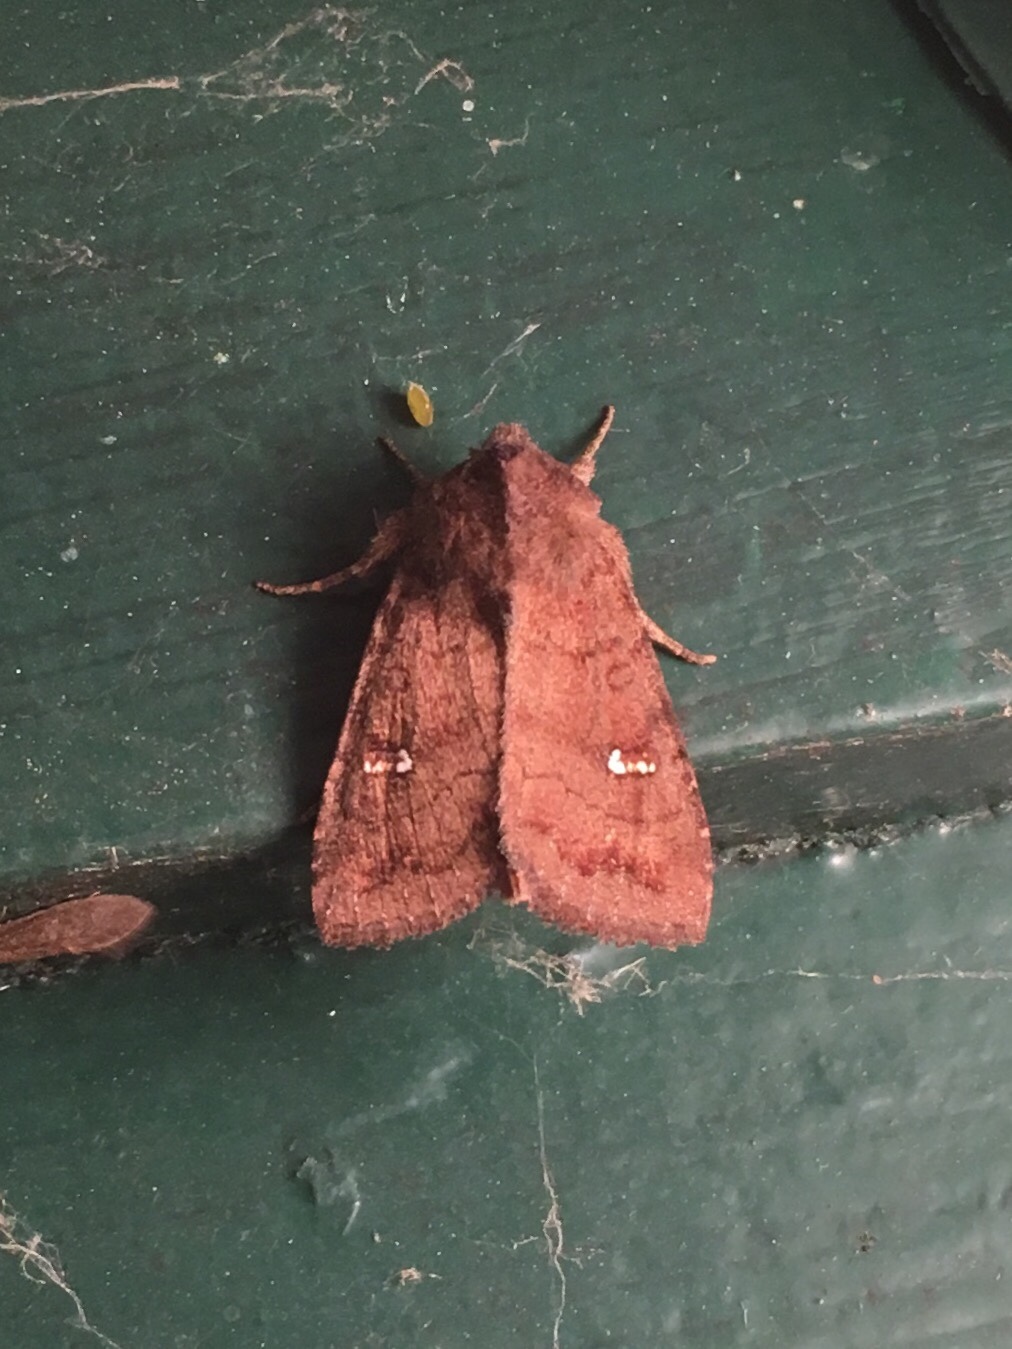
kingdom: Animalia
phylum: Arthropoda
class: Insecta
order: Lepidoptera
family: Noctuidae
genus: Tricholita
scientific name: Tricholita signata
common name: Signate quaker
